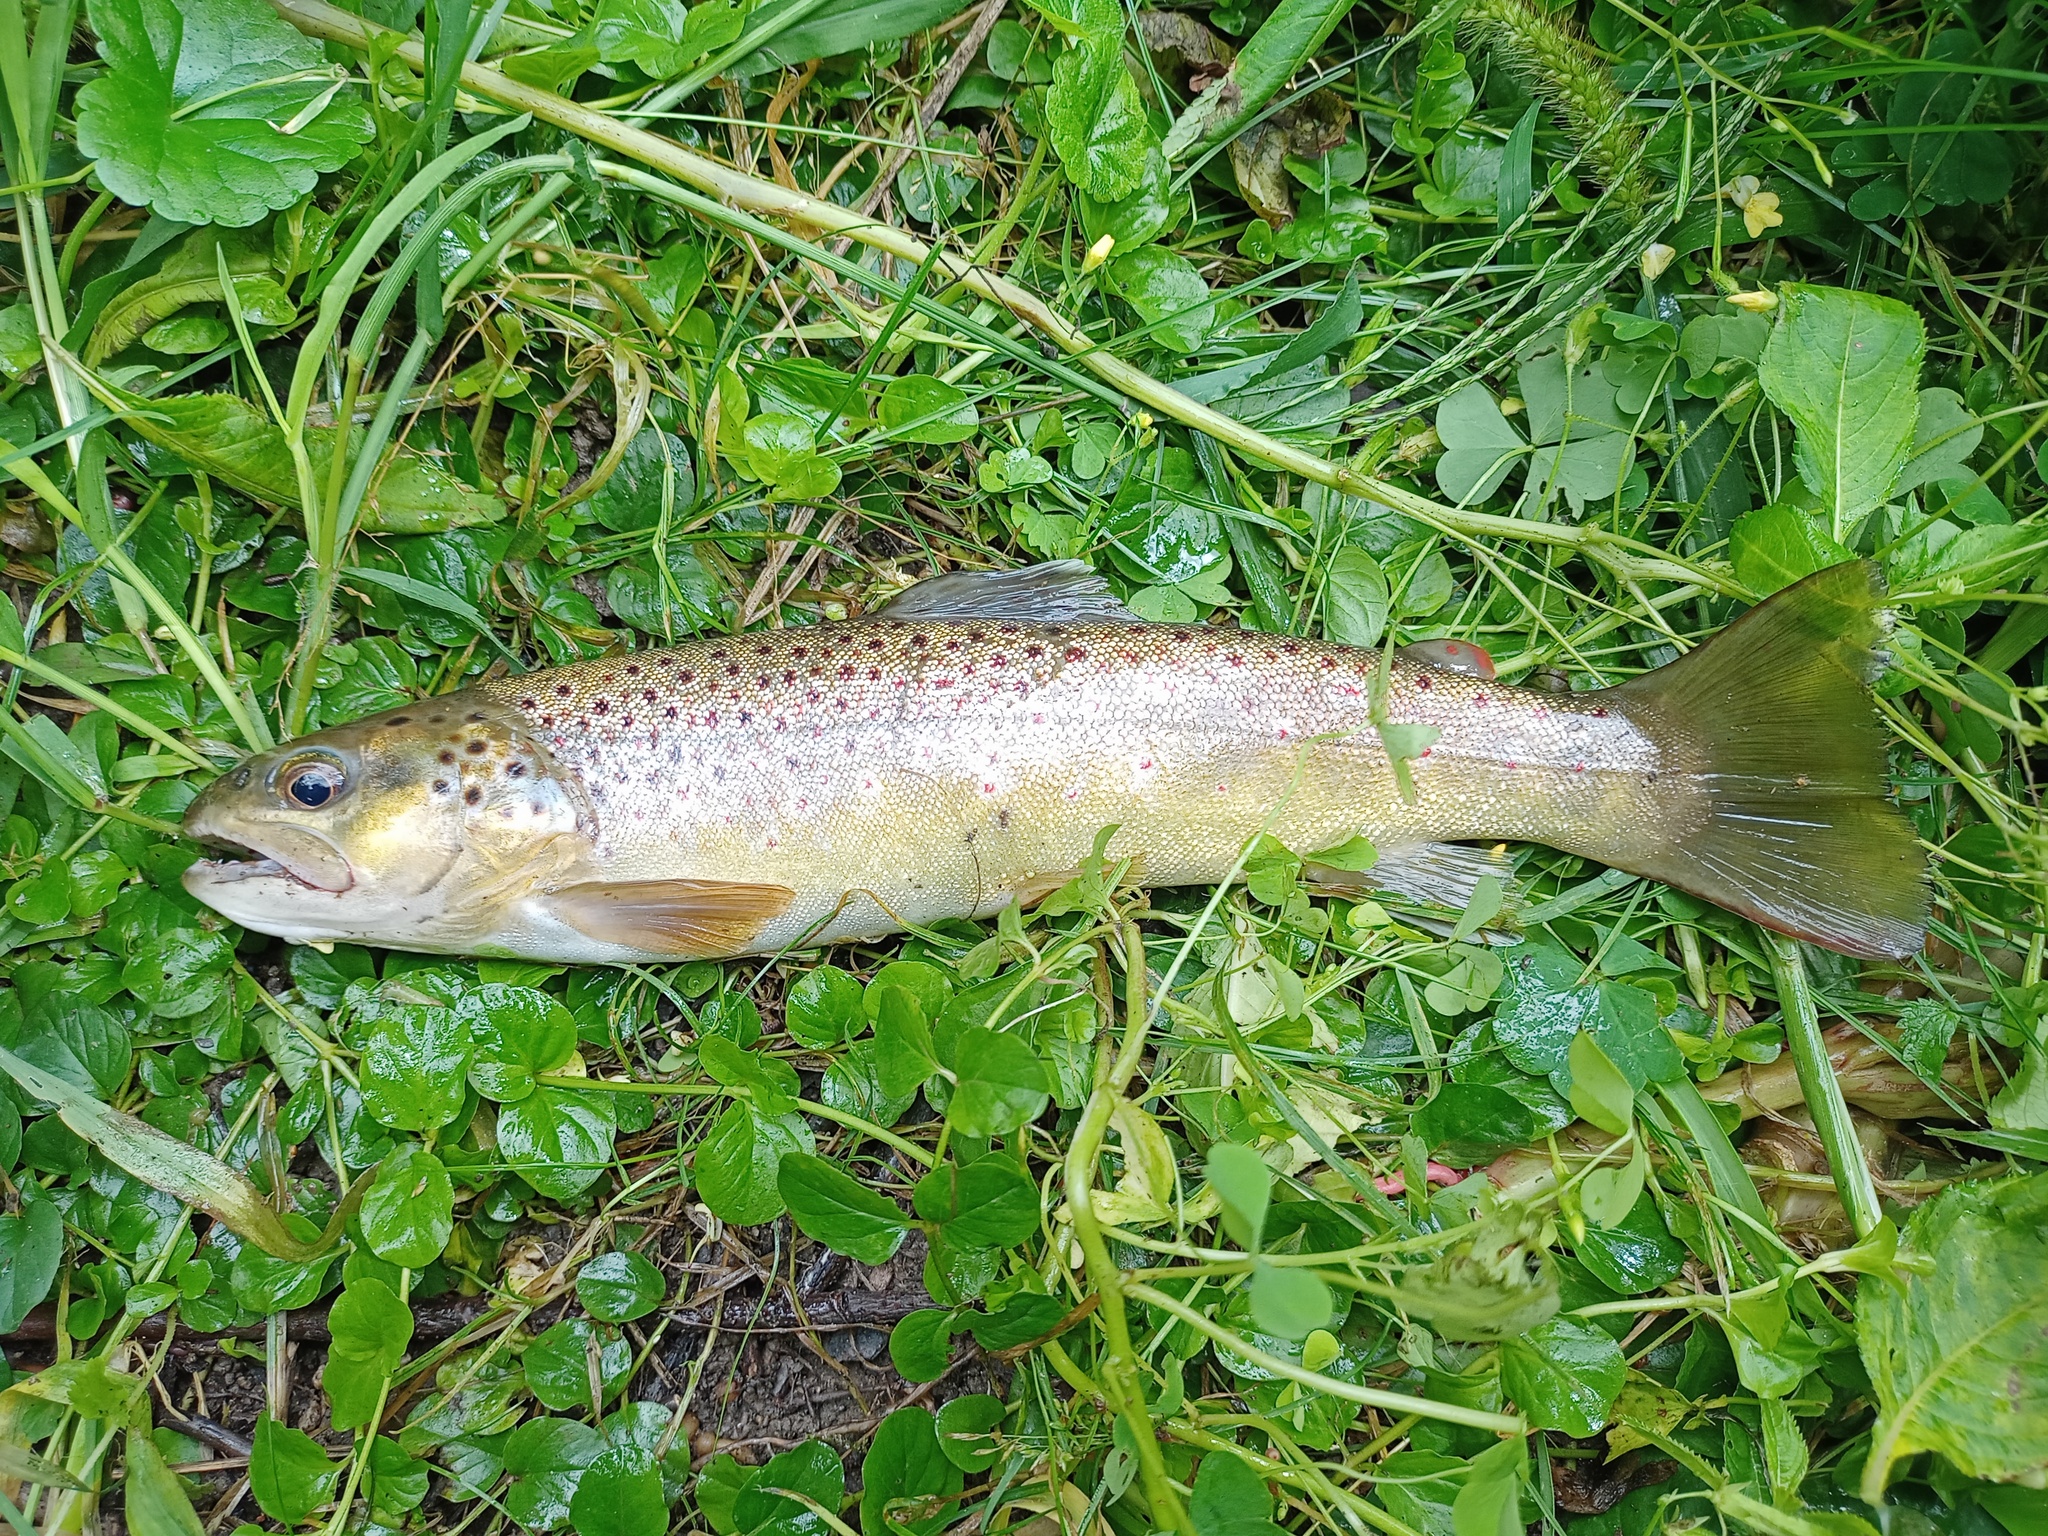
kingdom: Animalia
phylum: Chordata
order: Salmoniformes
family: Salmonidae
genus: Salmo
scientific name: Salmo trutta
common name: Brown trout
